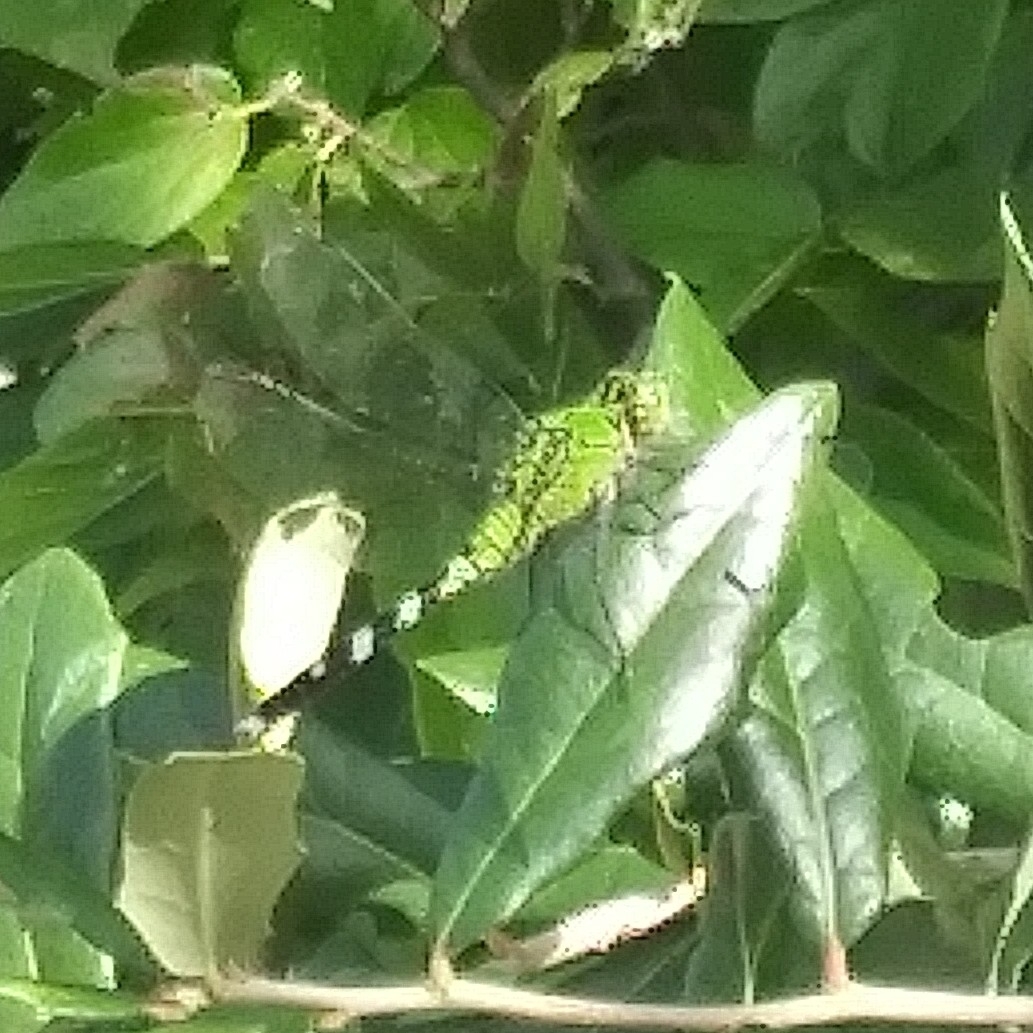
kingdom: Animalia
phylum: Arthropoda
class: Insecta
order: Odonata
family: Libellulidae
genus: Erythemis
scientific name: Erythemis simplicicollis
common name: Eastern pondhawk
